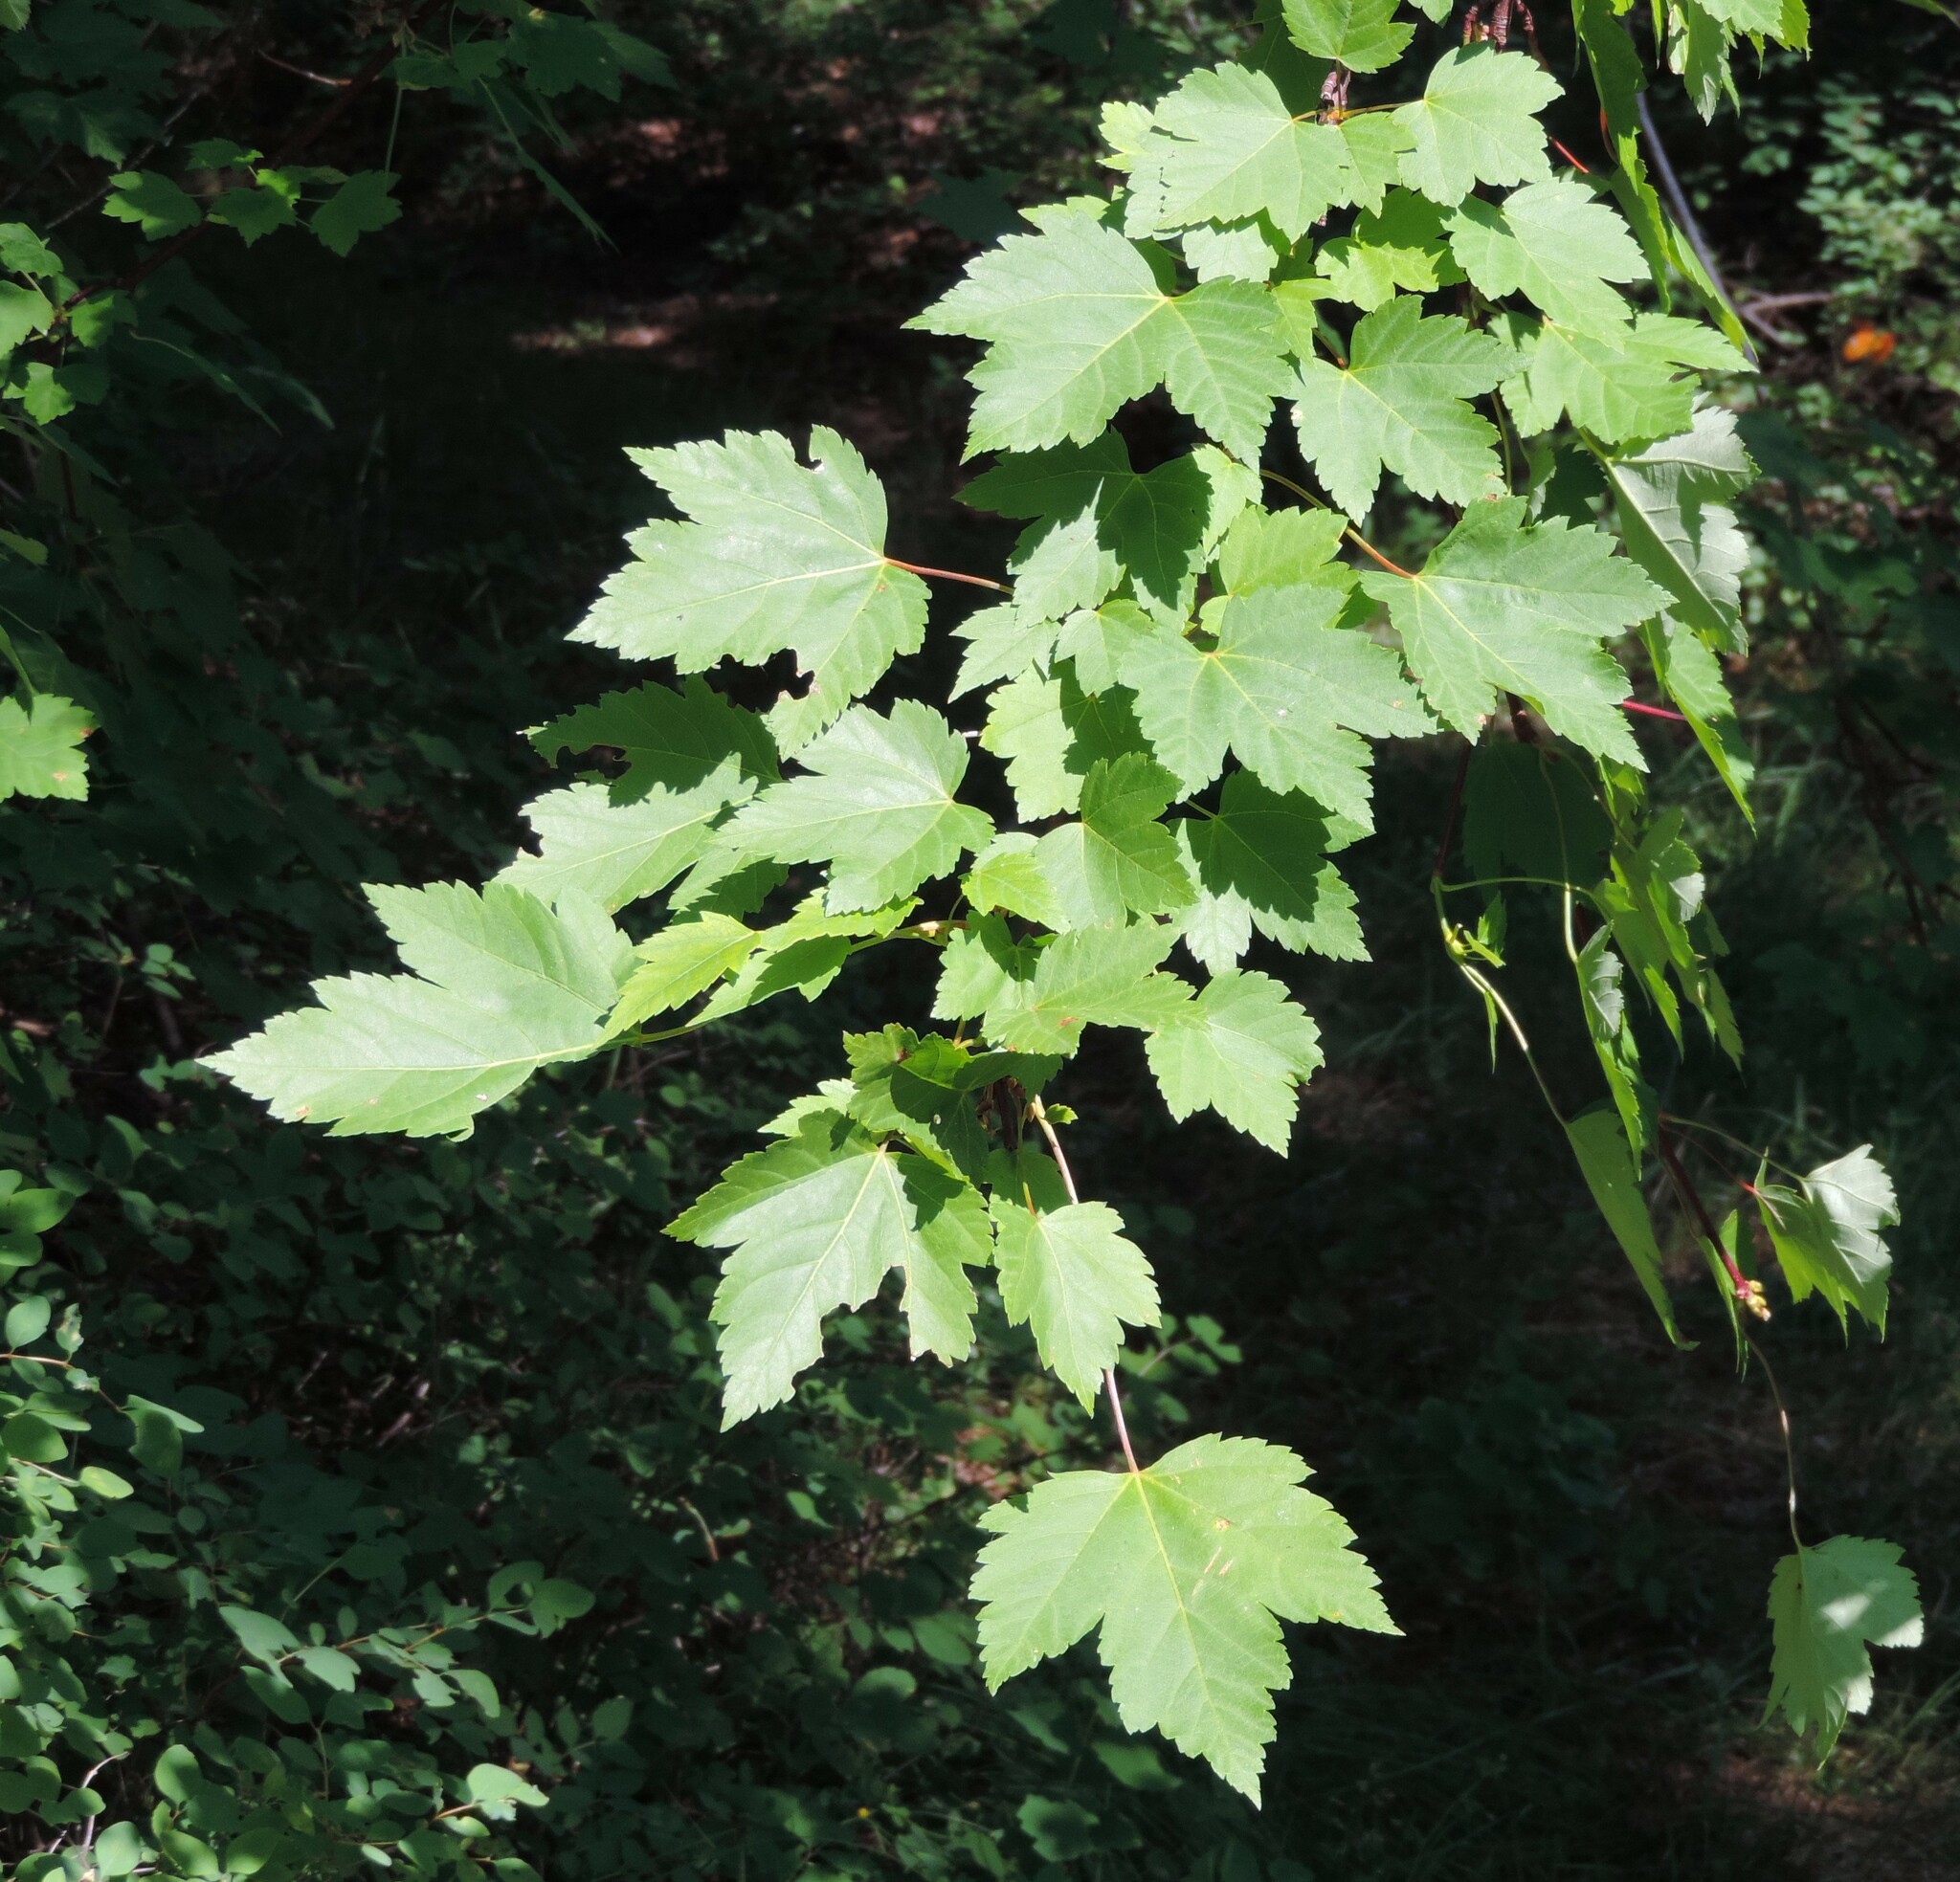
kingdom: Plantae
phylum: Tracheophyta
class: Magnoliopsida
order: Sapindales
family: Sapindaceae
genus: Acer
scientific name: Acer glabrum
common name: Rocky mountain maple
